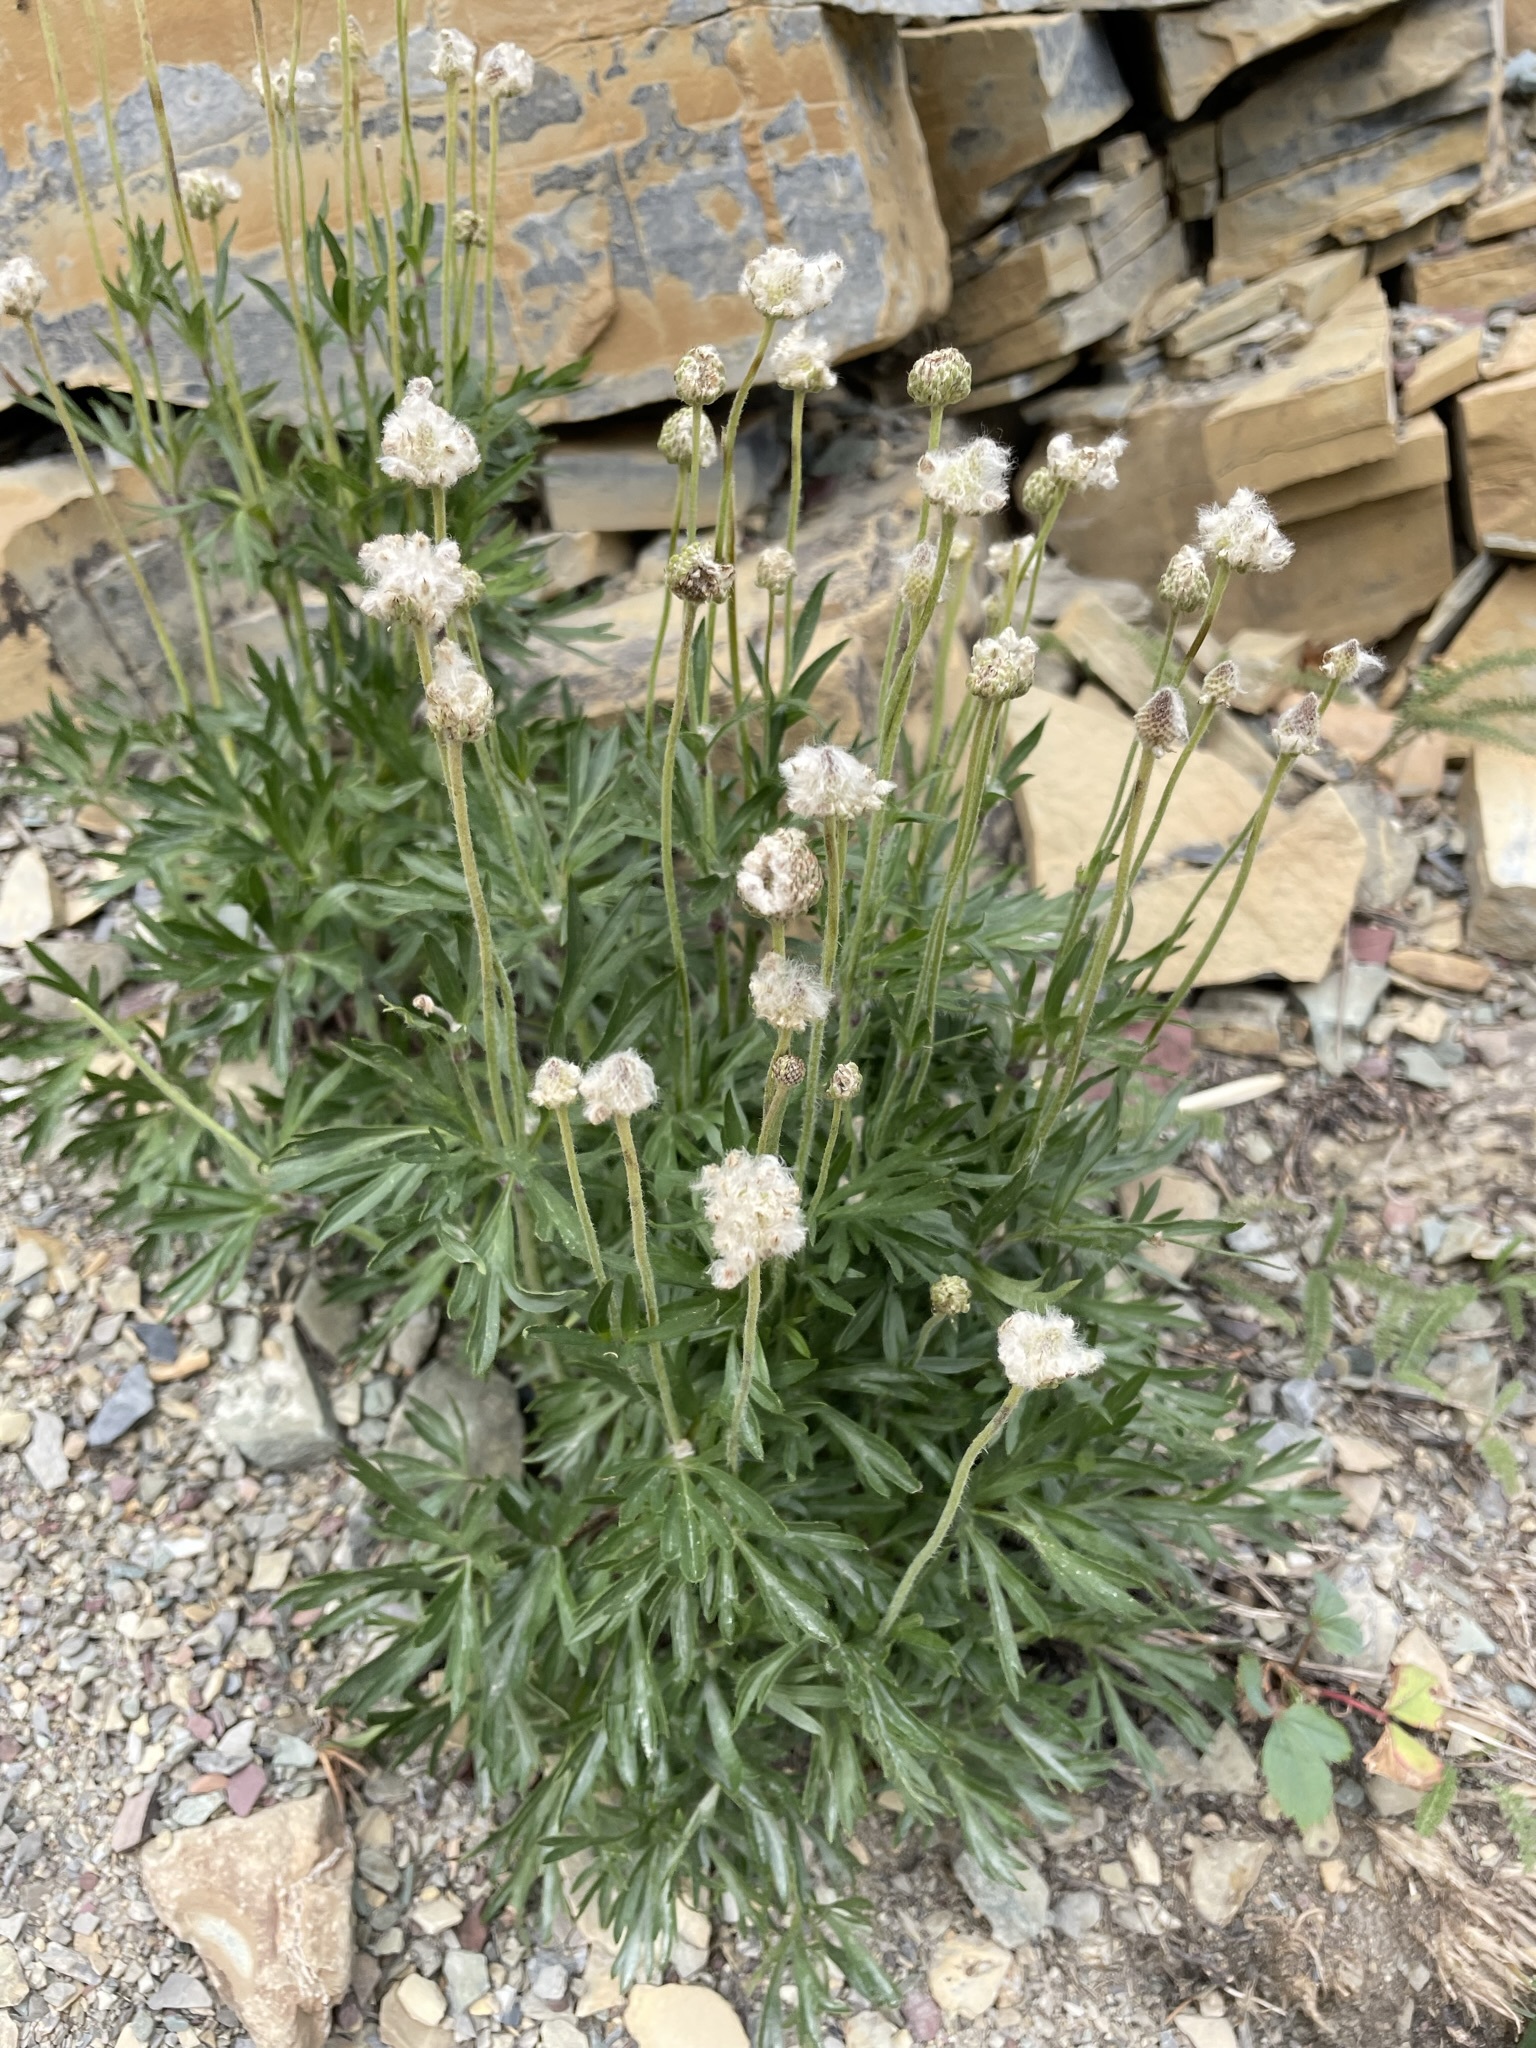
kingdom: Plantae
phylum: Tracheophyta
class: Magnoliopsida
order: Ranunculales
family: Ranunculaceae
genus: Anemone
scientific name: Anemone multifida
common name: Bird's-foot anemone
